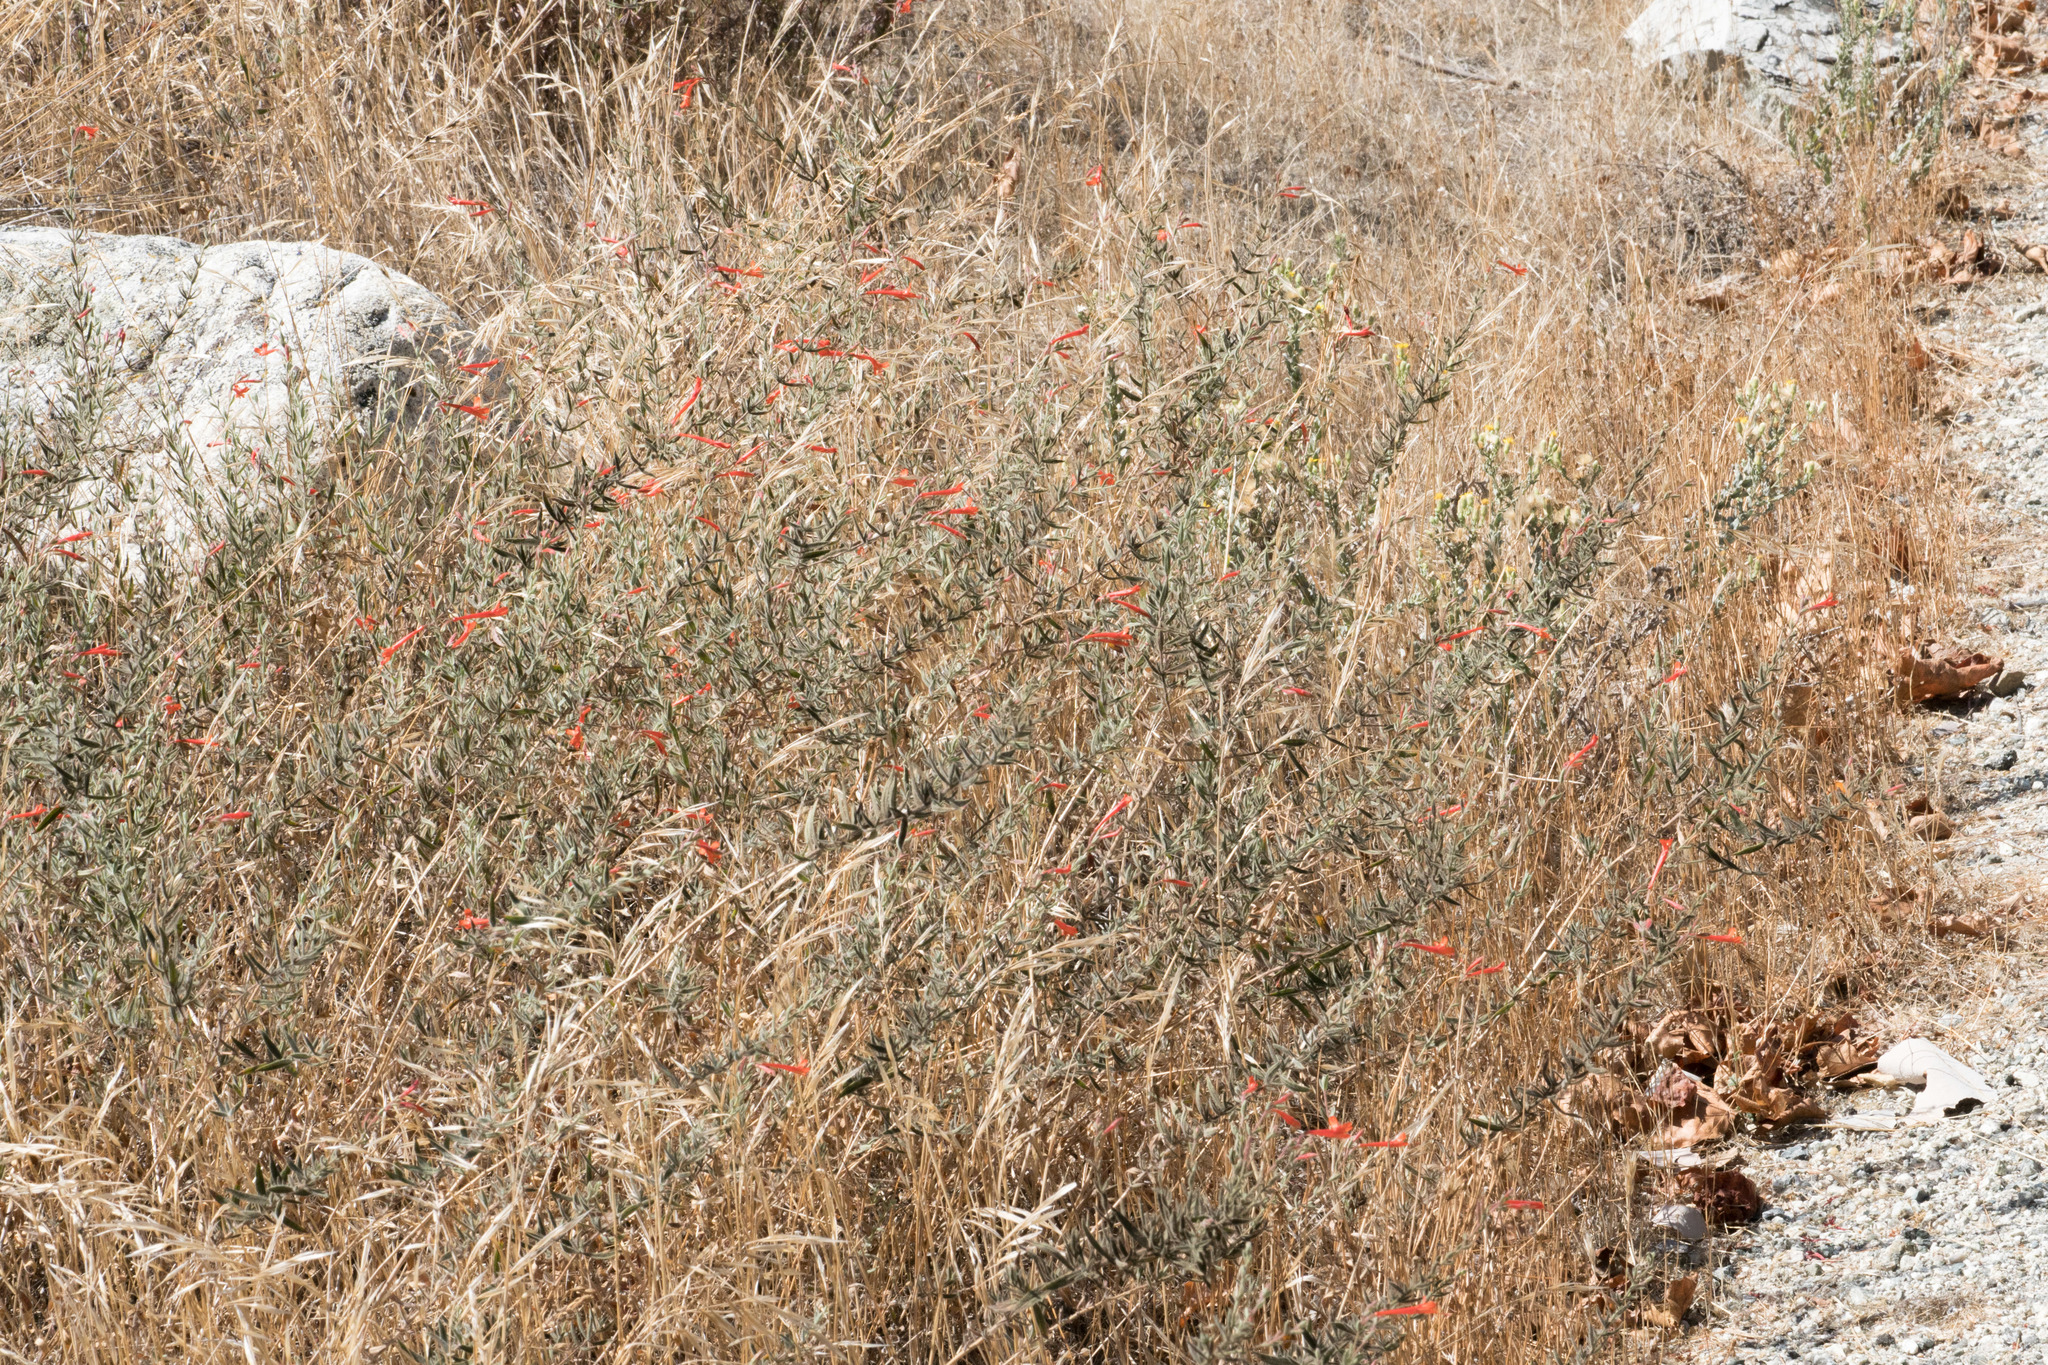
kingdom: Plantae
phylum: Tracheophyta
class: Magnoliopsida
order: Myrtales
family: Onagraceae
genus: Epilobium
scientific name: Epilobium canum
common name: California-fuchsia
